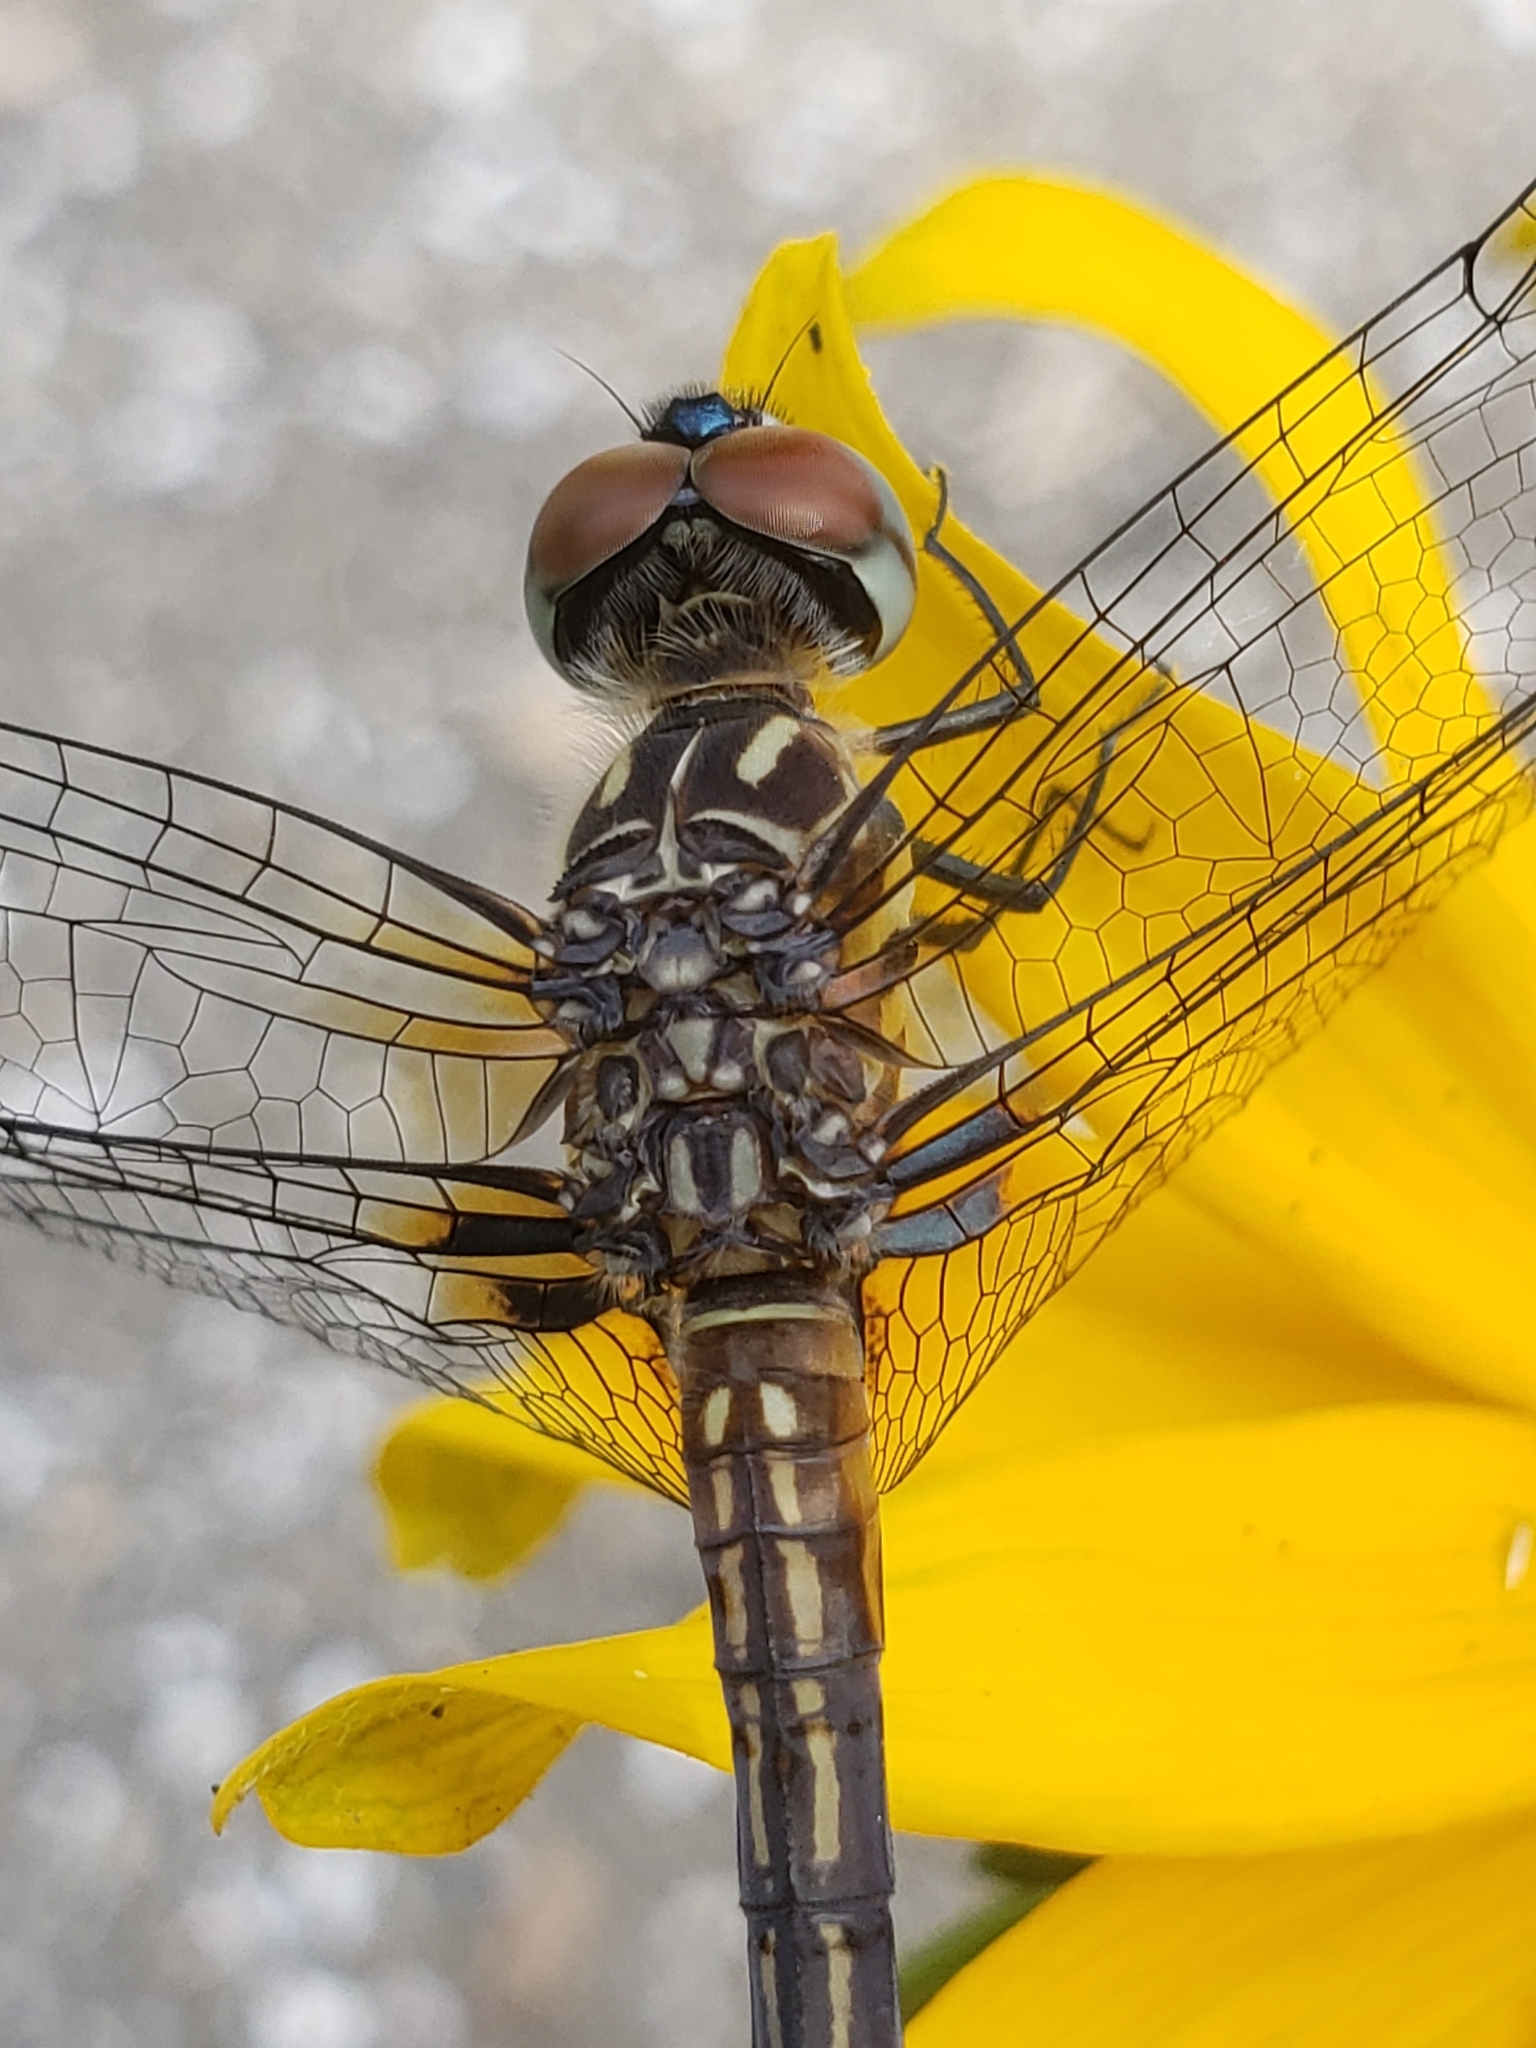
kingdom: Animalia
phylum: Arthropoda
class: Insecta
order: Odonata
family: Libellulidae
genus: Pachydiplax
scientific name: Pachydiplax longipennis
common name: Blue dasher
